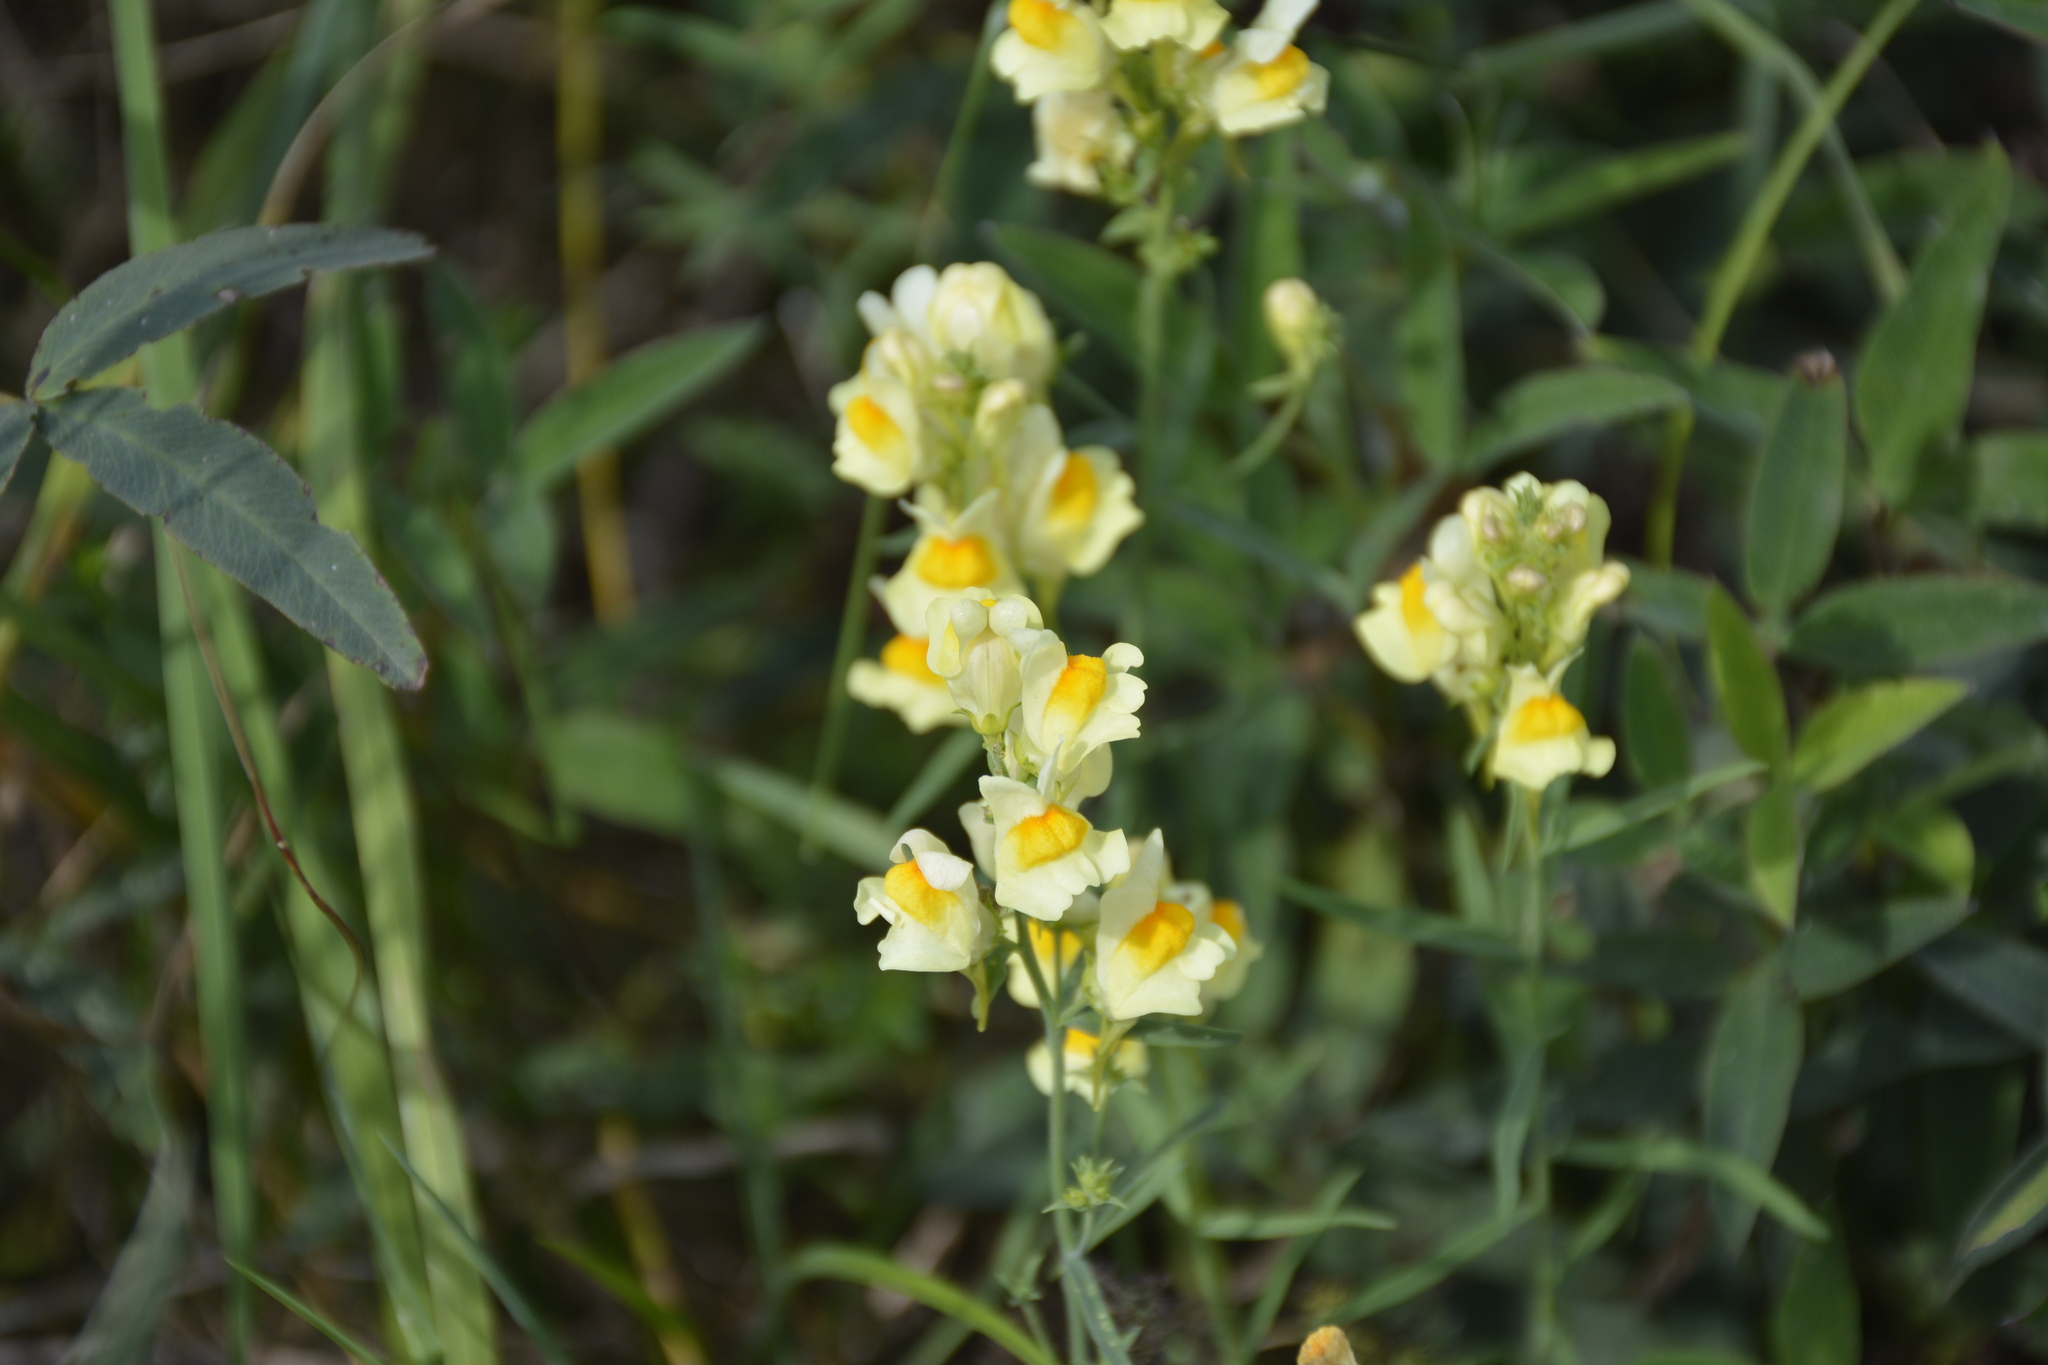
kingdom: Plantae
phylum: Tracheophyta
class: Magnoliopsida
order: Lamiales
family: Plantaginaceae
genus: Linaria
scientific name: Linaria vulgaris
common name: Butter and eggs
